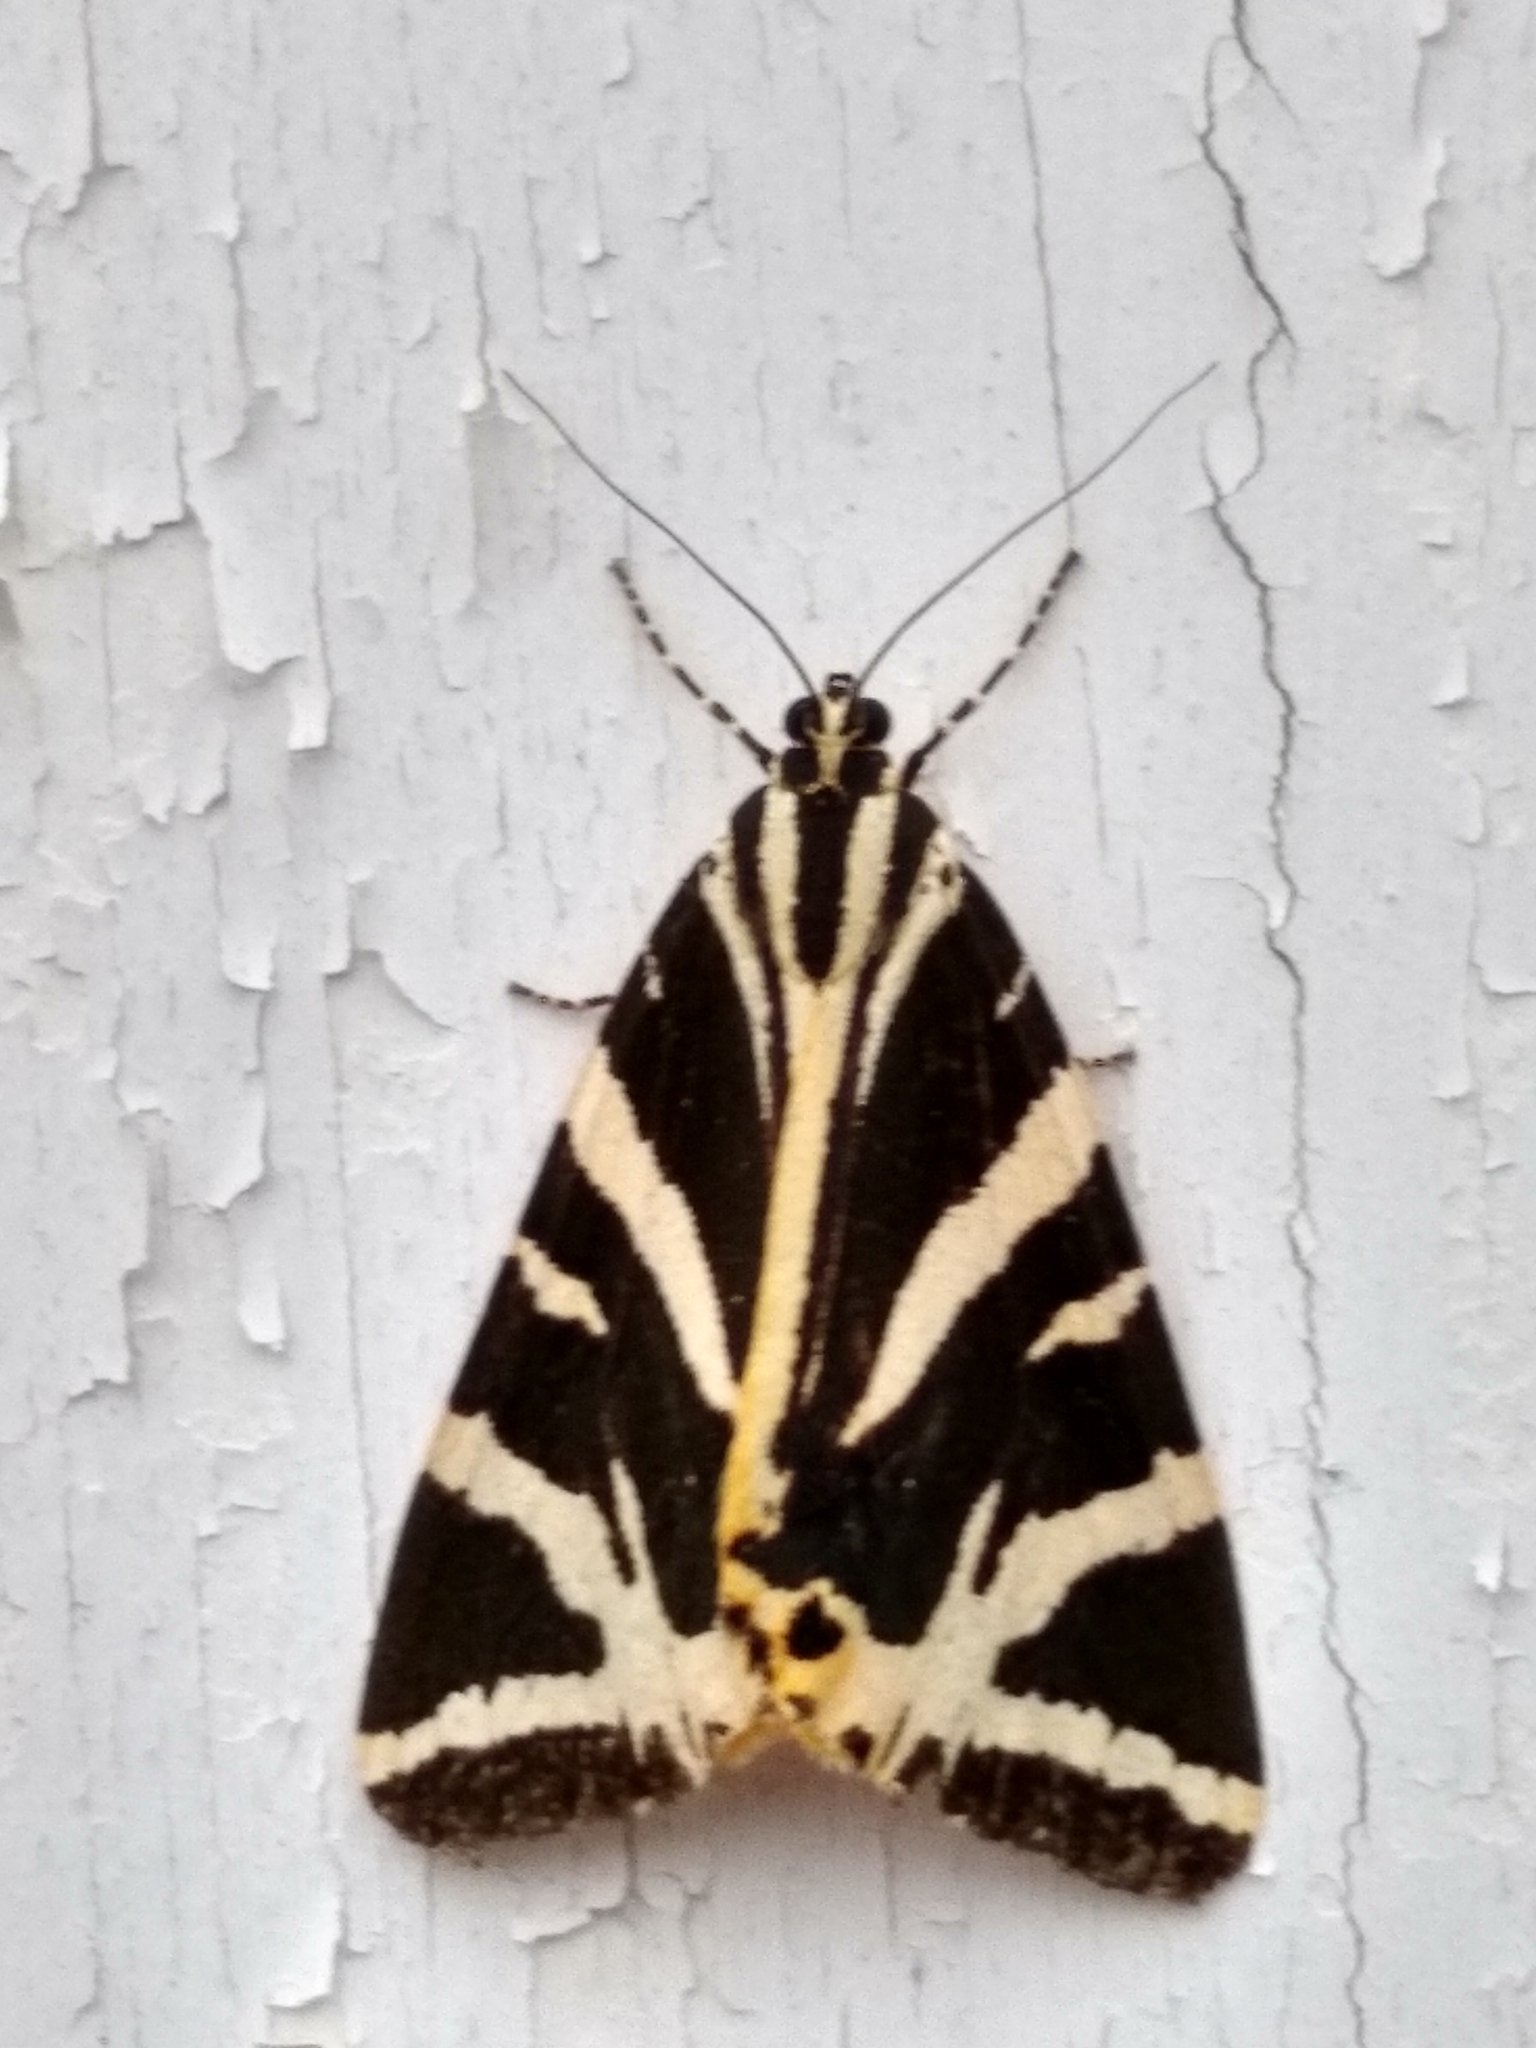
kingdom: Animalia
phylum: Arthropoda
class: Insecta
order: Lepidoptera
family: Erebidae
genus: Euplagia
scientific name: Euplagia quadripunctaria
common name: Jersey tiger
